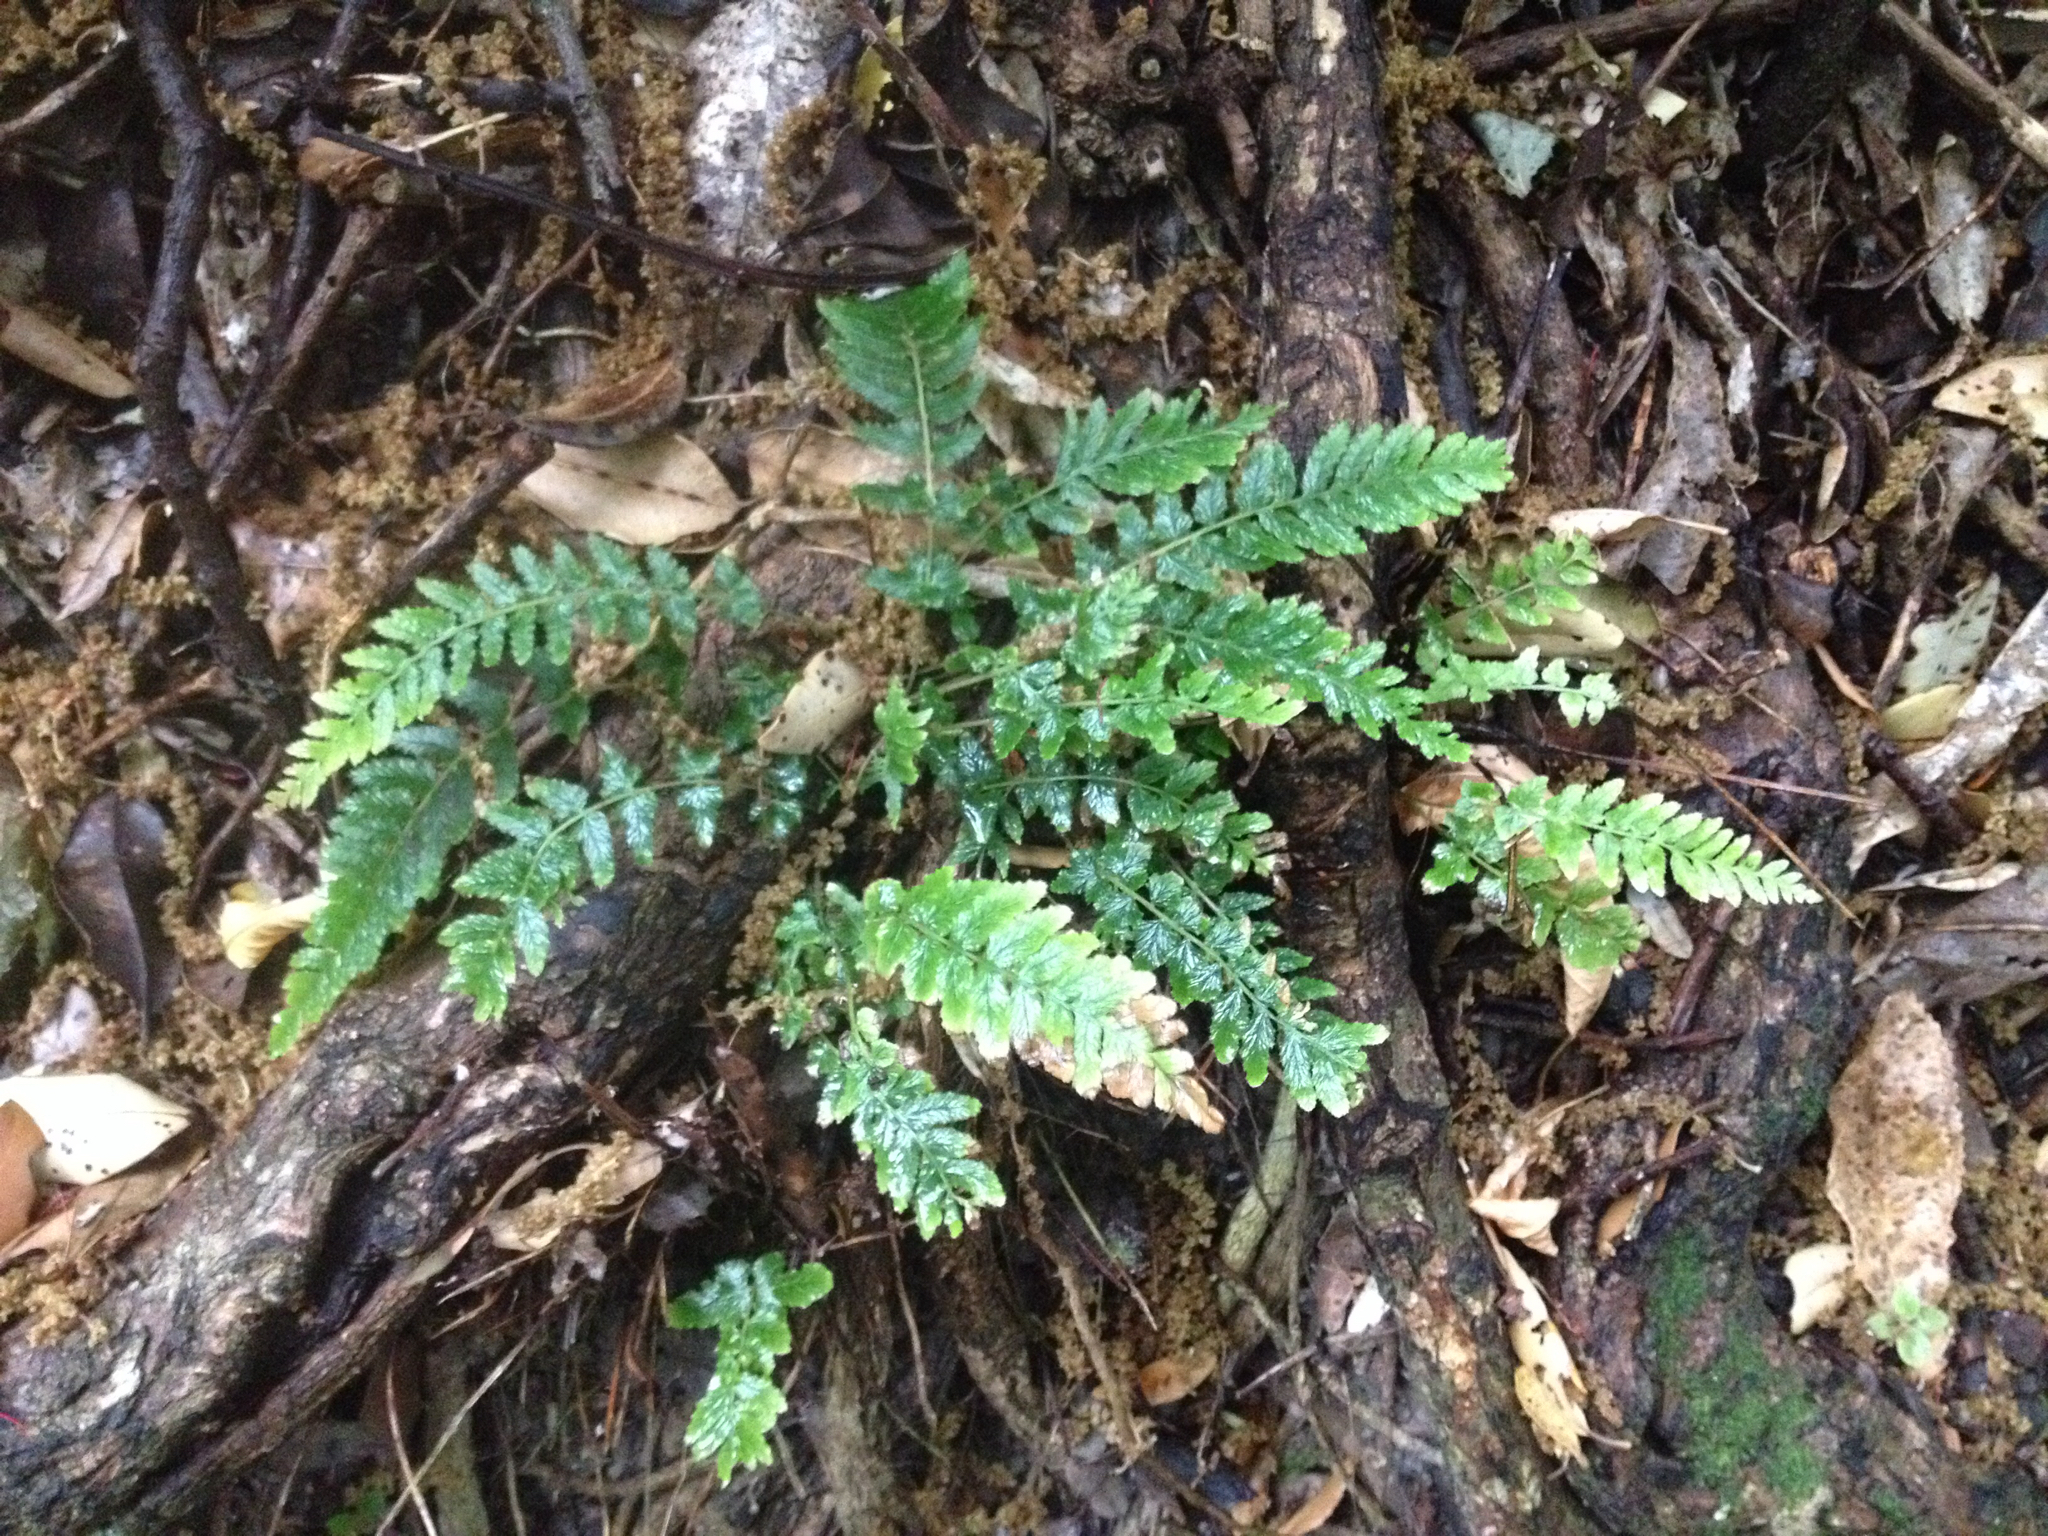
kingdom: Plantae
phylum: Tracheophyta
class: Polypodiopsida
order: Polypodiales
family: Blechnaceae
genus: Doodia
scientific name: Doodia australis
